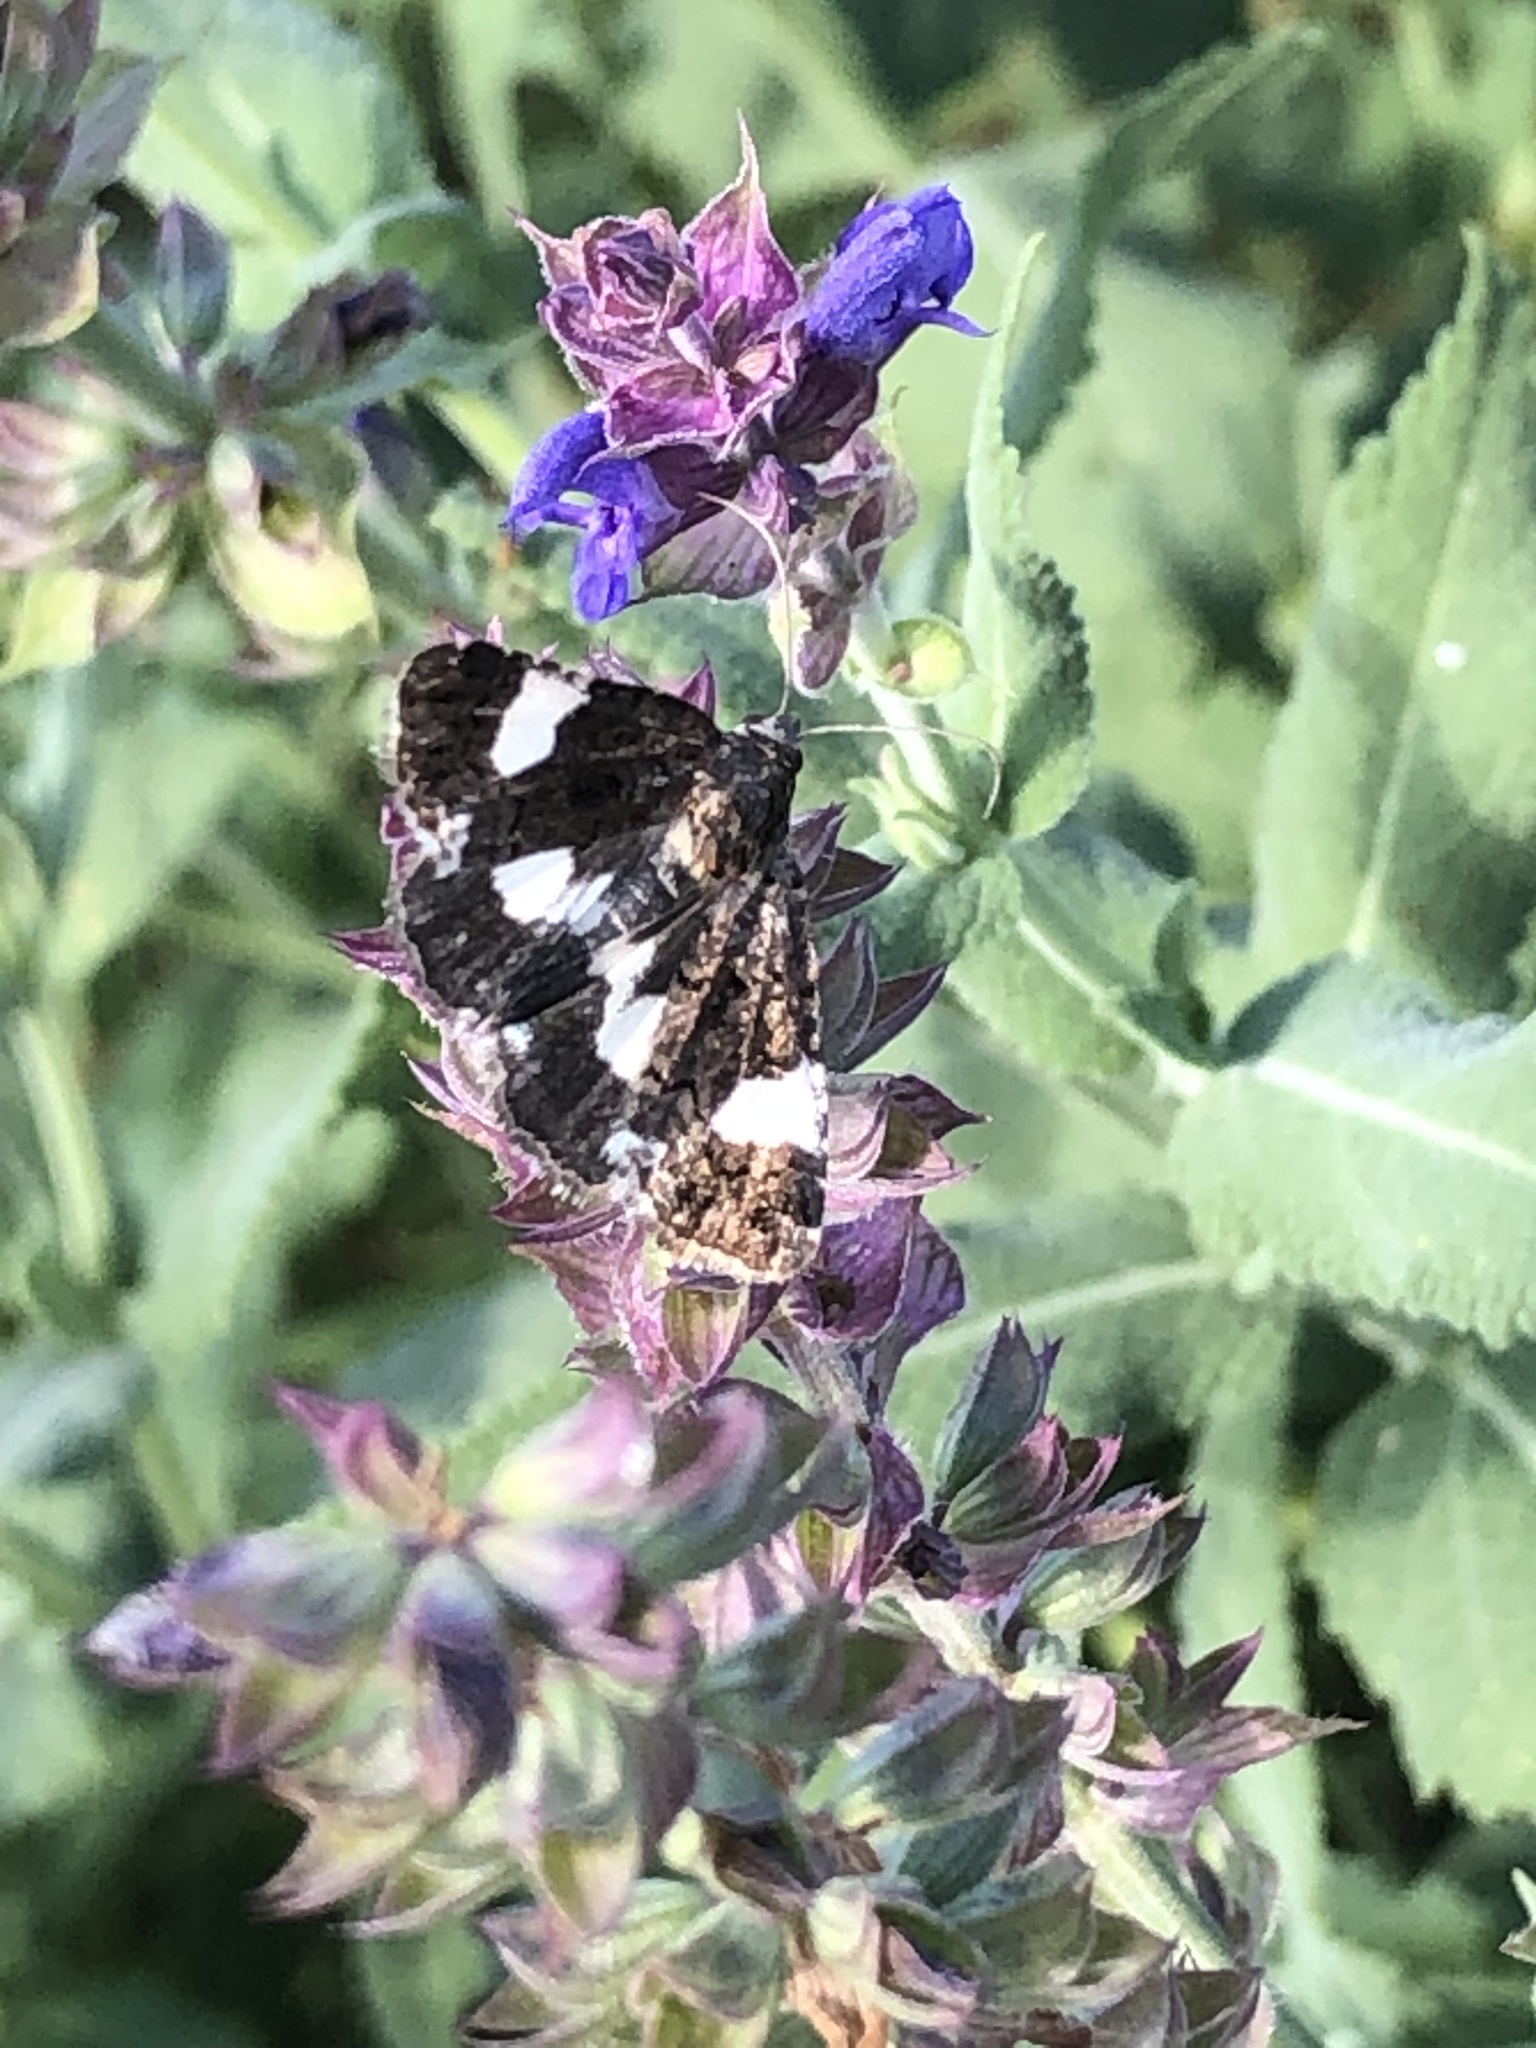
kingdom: Animalia
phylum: Arthropoda
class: Insecta
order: Lepidoptera
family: Erebidae
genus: Tyta
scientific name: Tyta luctuosa
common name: Four-spotted
